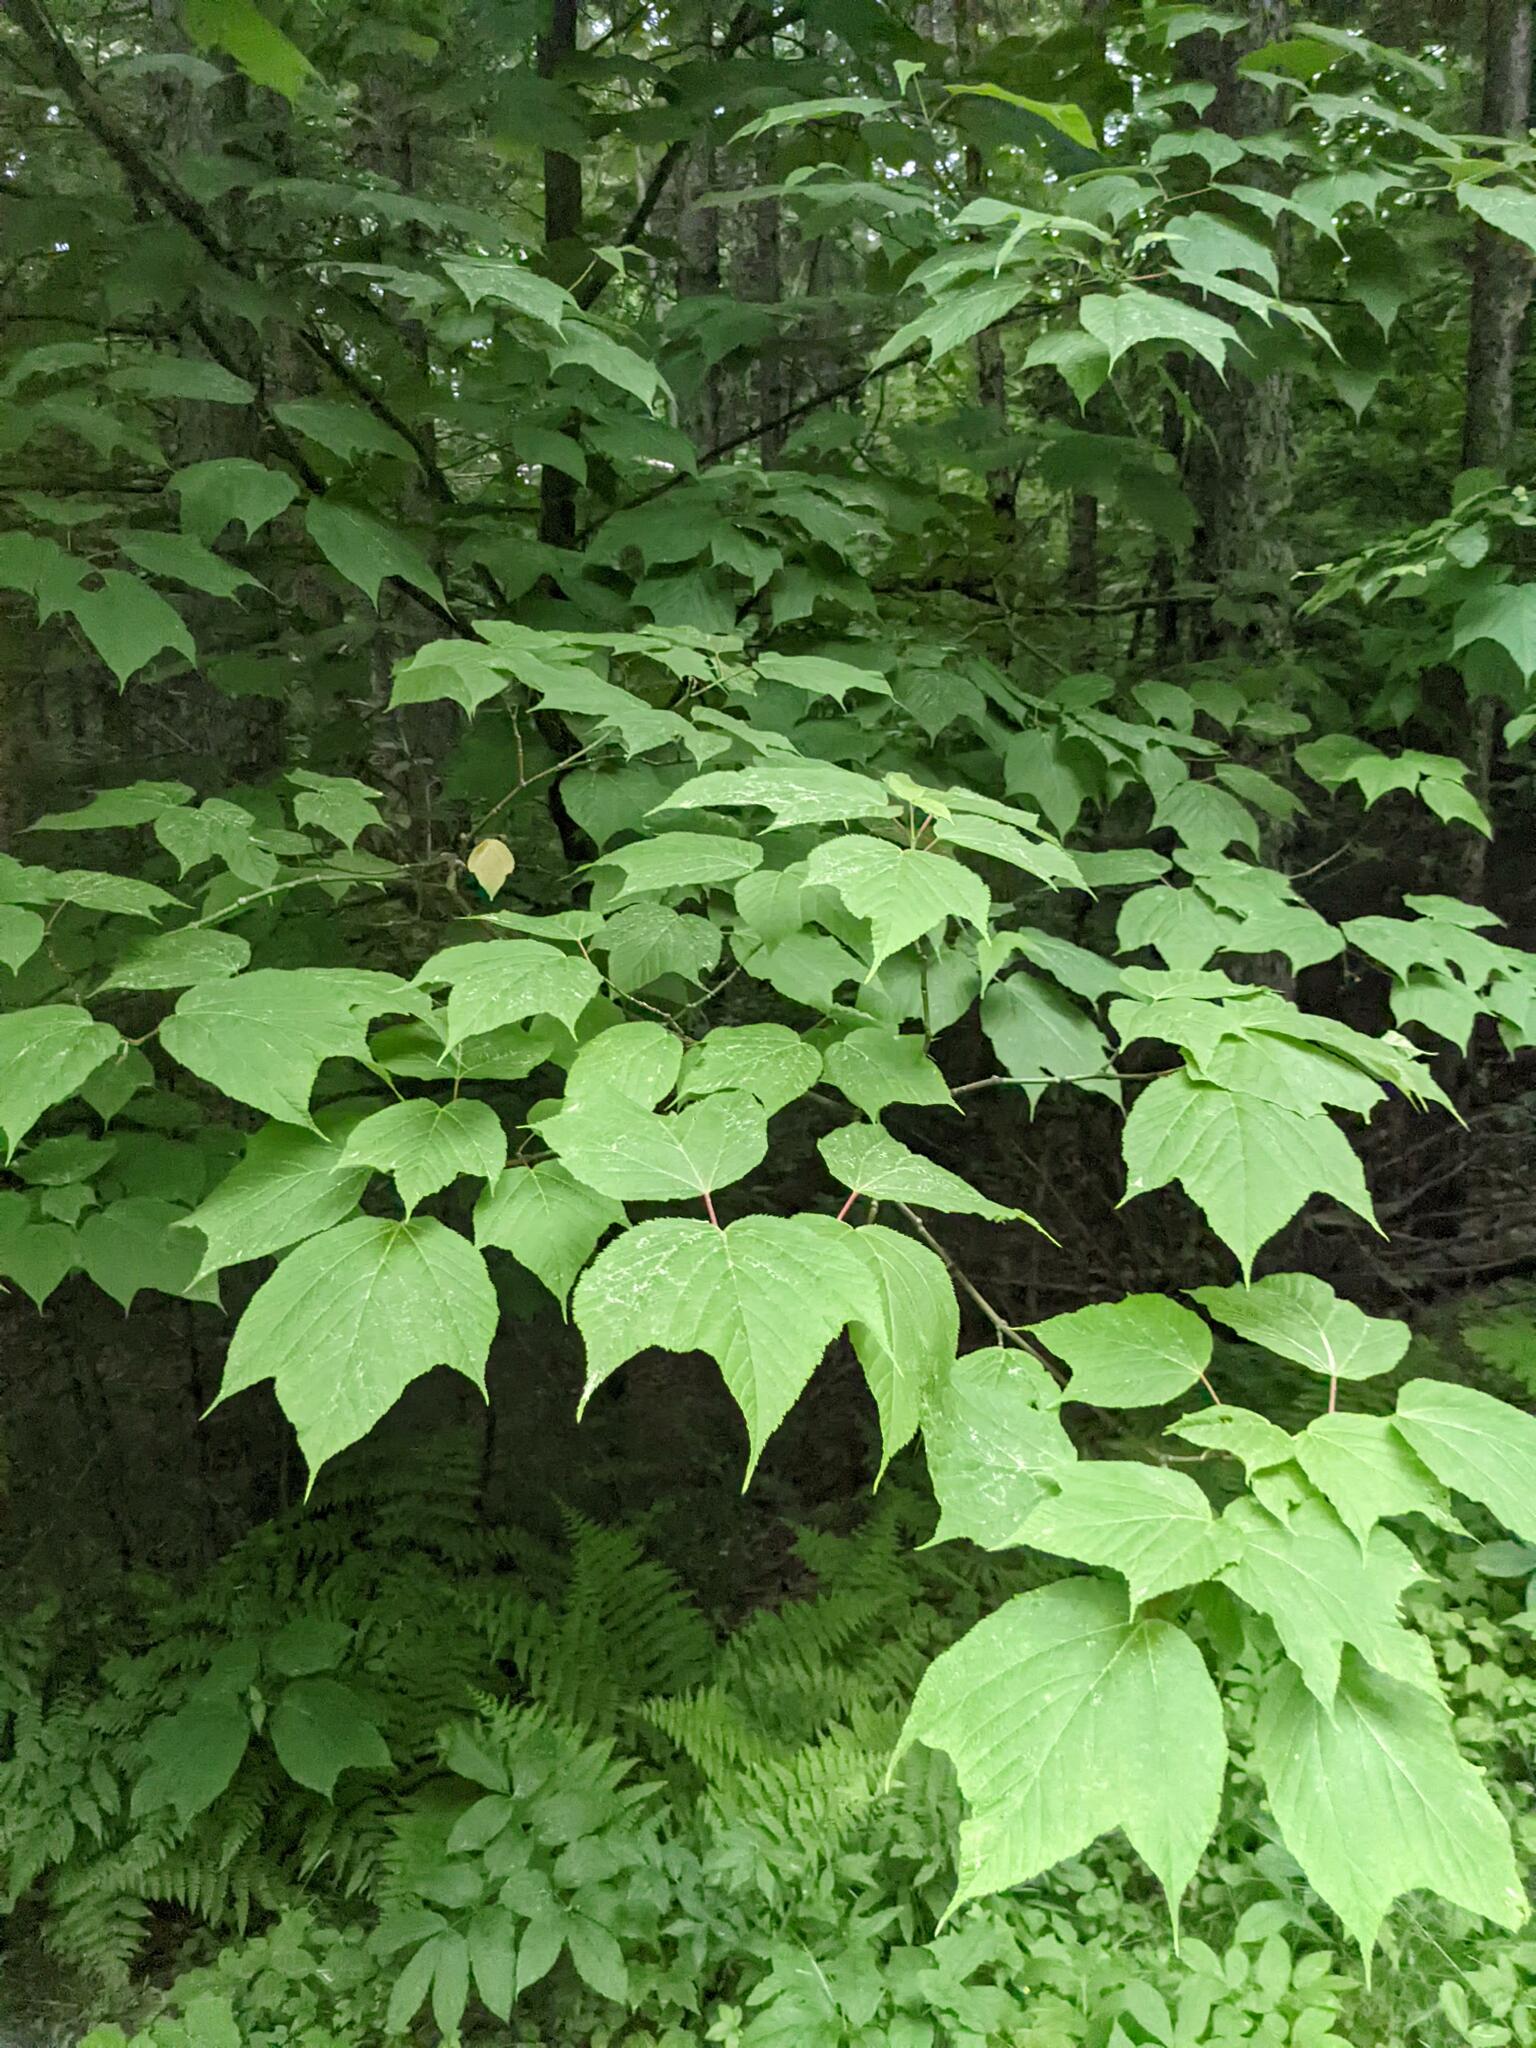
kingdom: Plantae
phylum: Tracheophyta
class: Magnoliopsida
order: Sapindales
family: Sapindaceae
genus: Acer
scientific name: Acer pensylvanicum
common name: Moosewood
